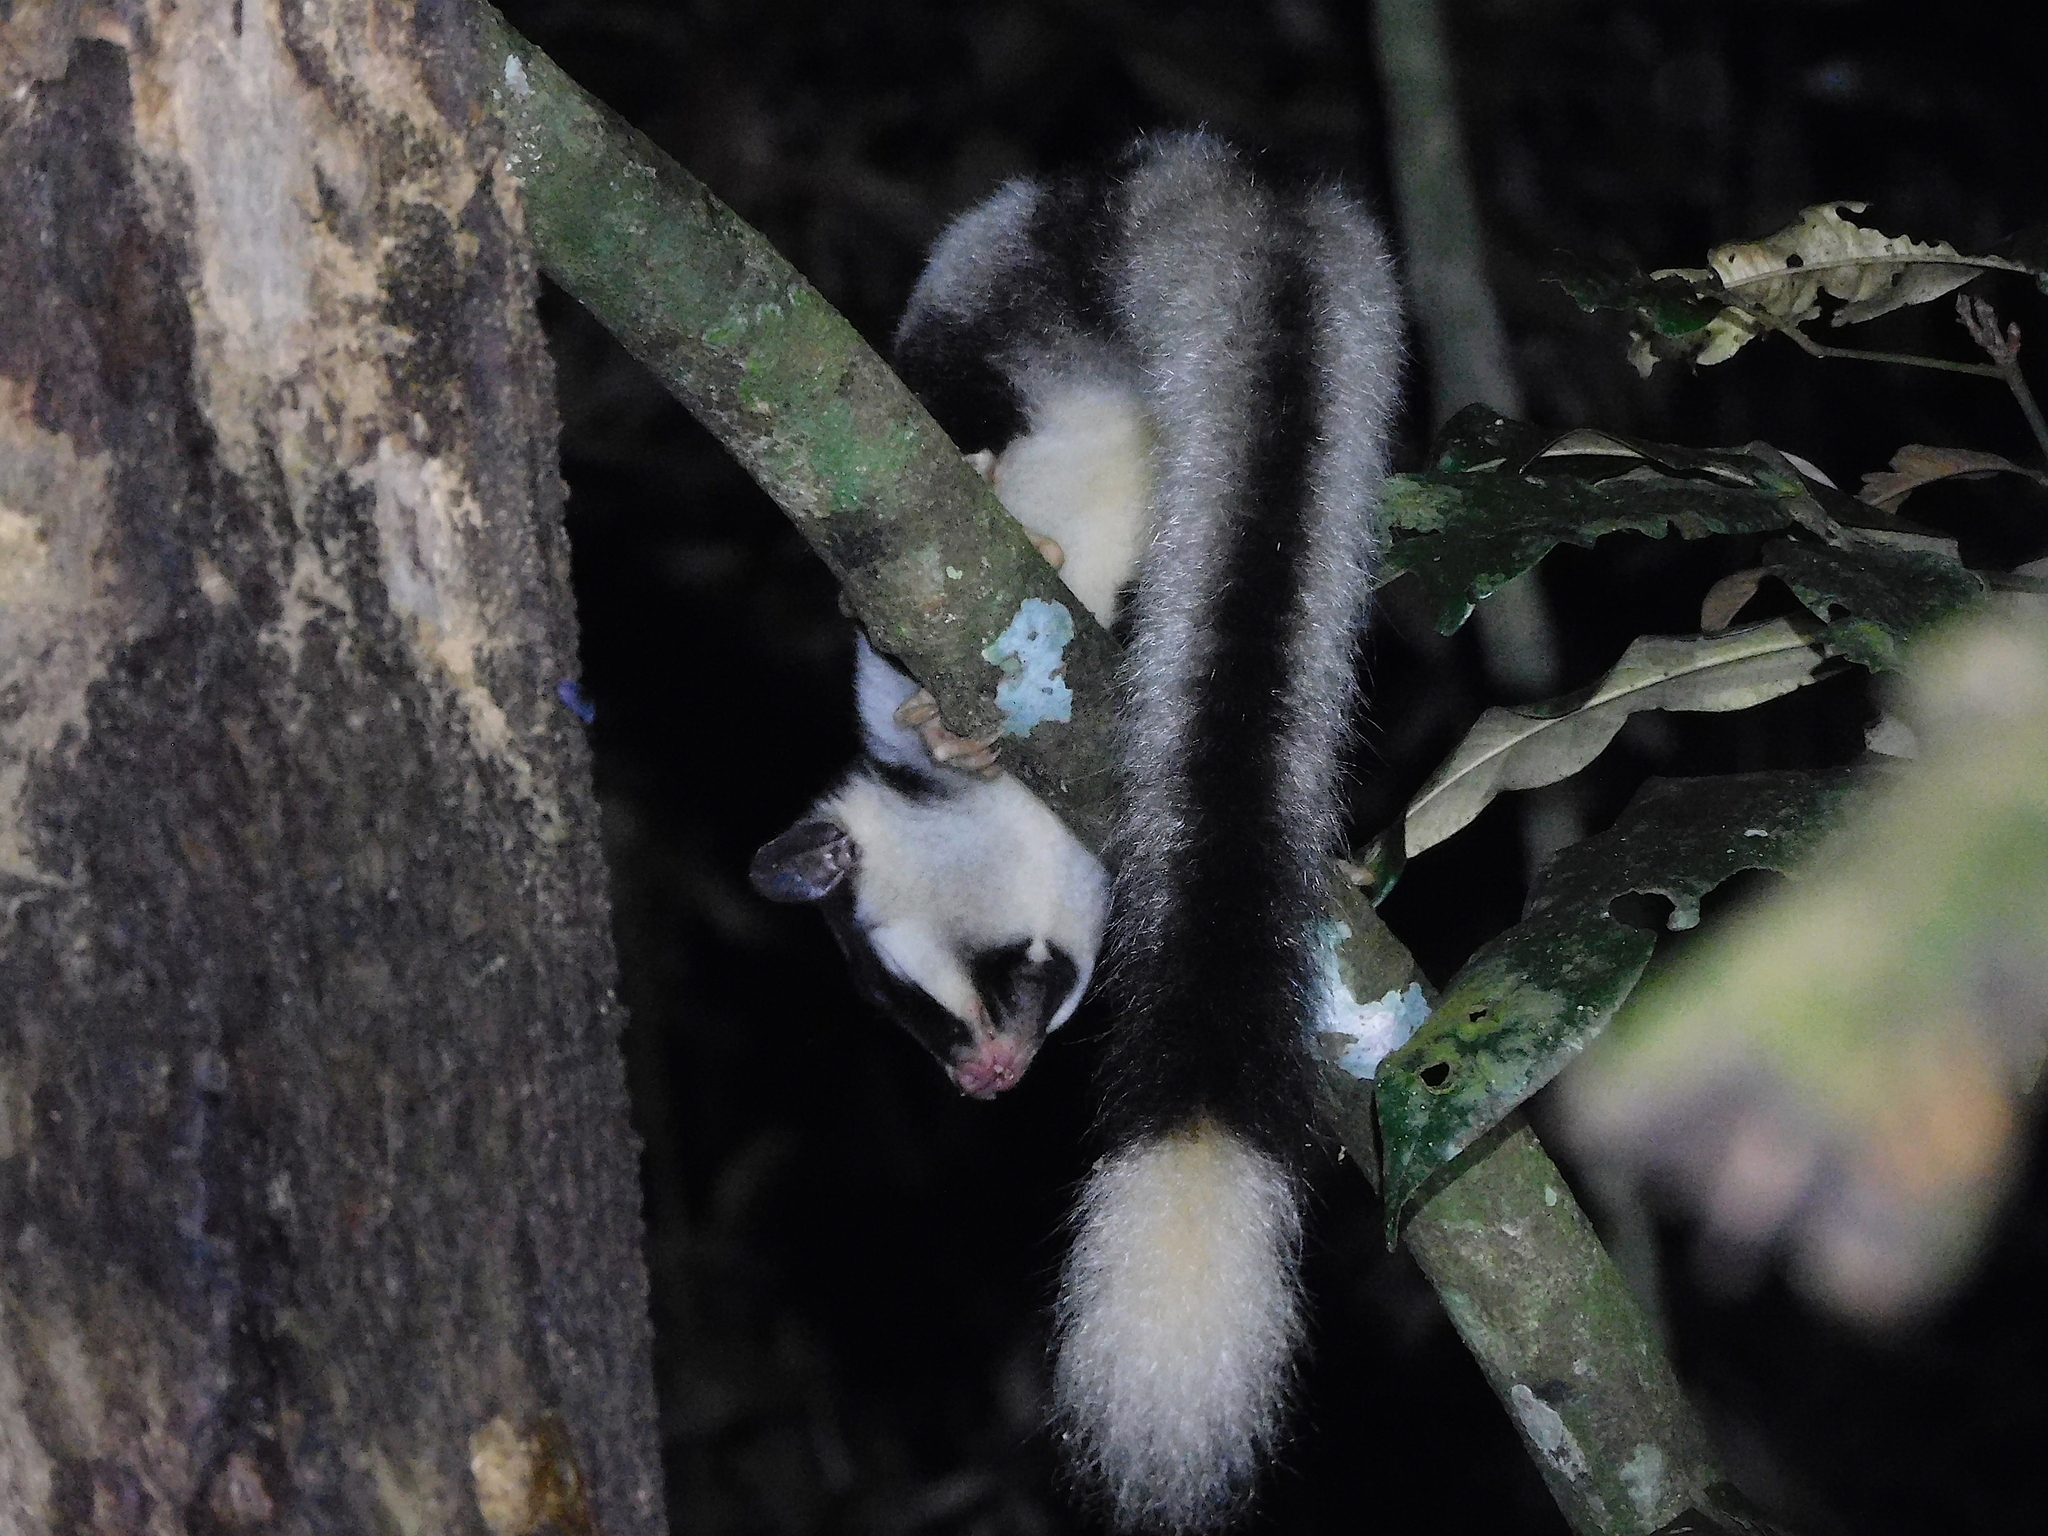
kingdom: Animalia
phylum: Chordata
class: Mammalia
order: Diprotodontia
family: Petauridae
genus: Dactylopsila
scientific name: Dactylopsila trivirgata
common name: Striped possum
